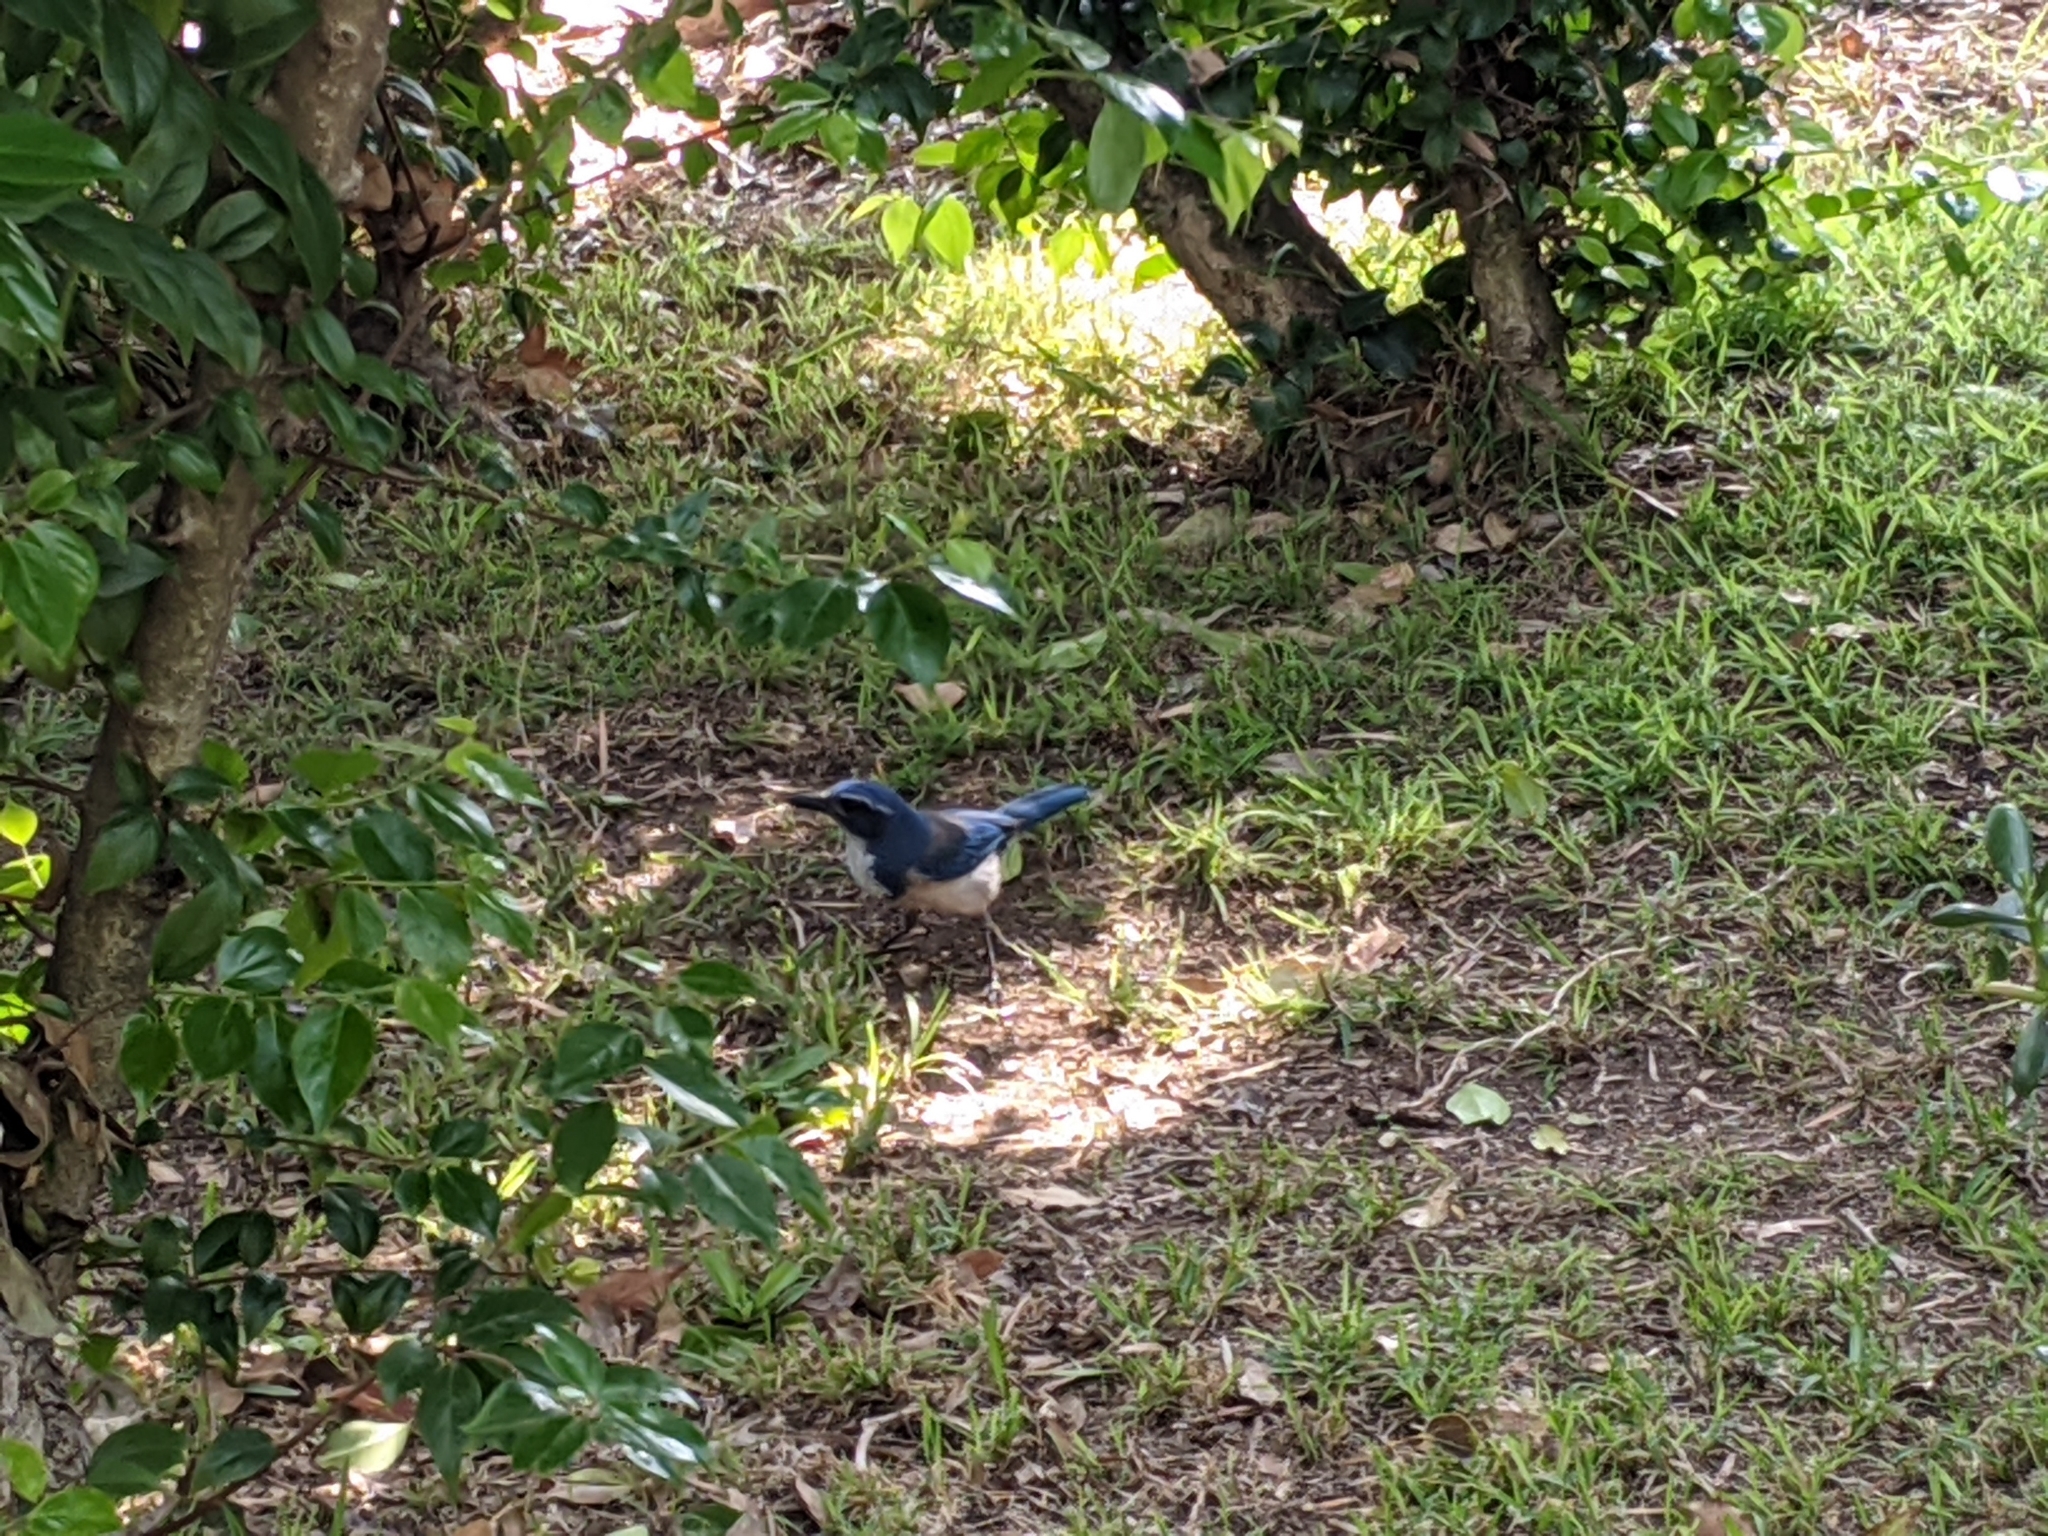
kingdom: Animalia
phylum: Chordata
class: Aves
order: Passeriformes
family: Corvidae
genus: Aphelocoma
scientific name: Aphelocoma californica
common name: California scrub-jay
